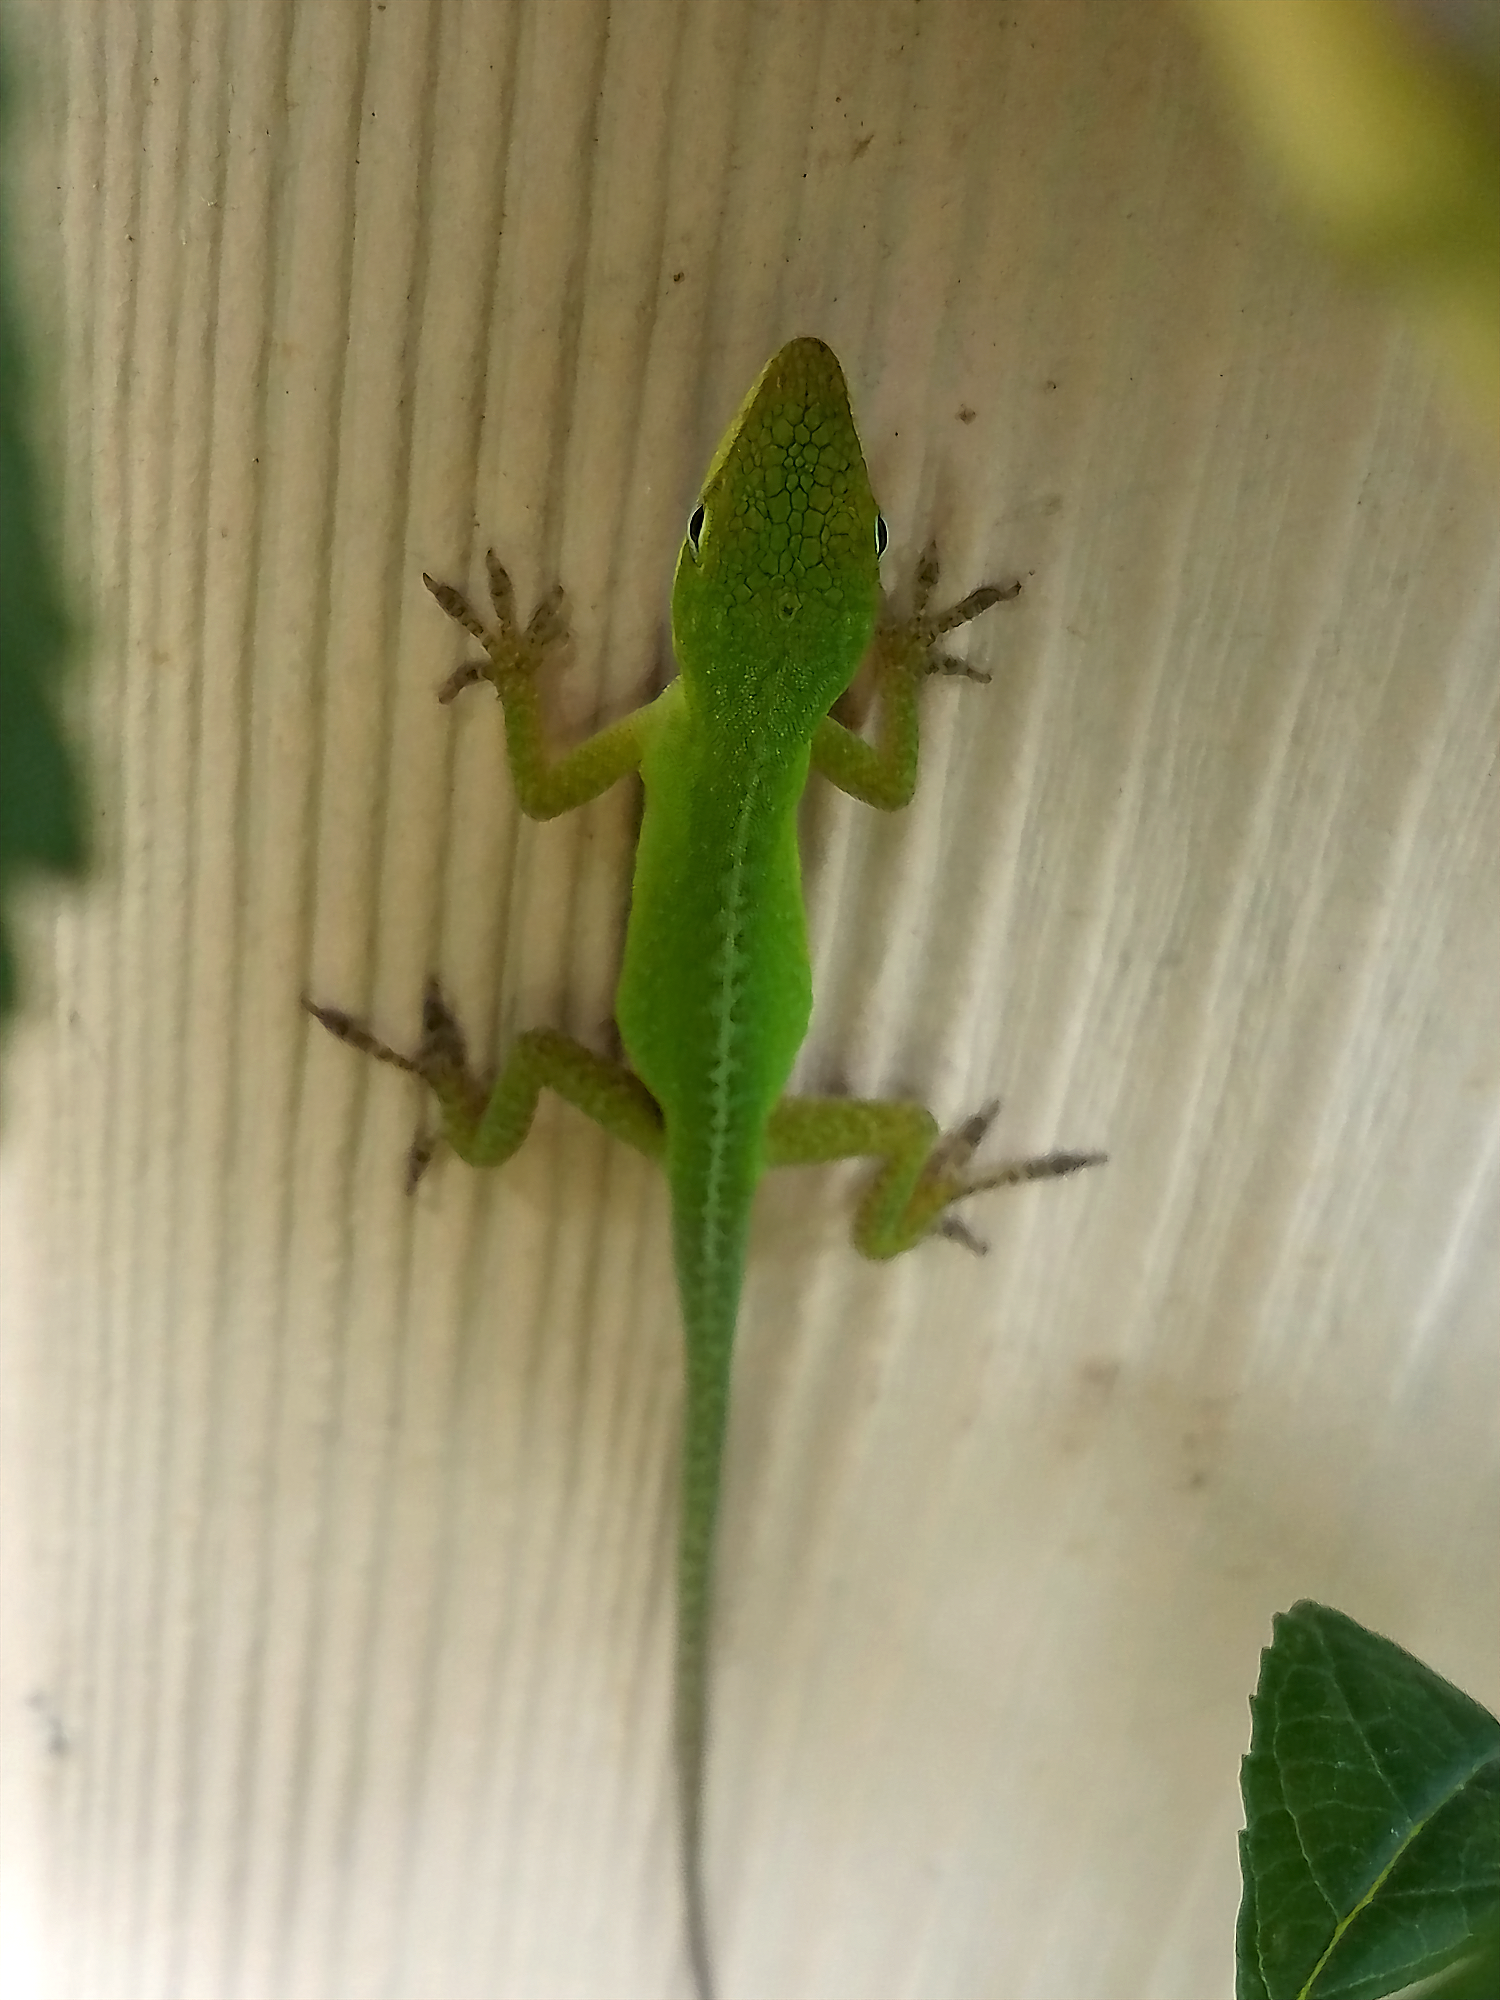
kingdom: Animalia
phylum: Chordata
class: Squamata
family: Dactyloidae
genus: Anolis
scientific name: Anolis carolinensis
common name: Green anole
